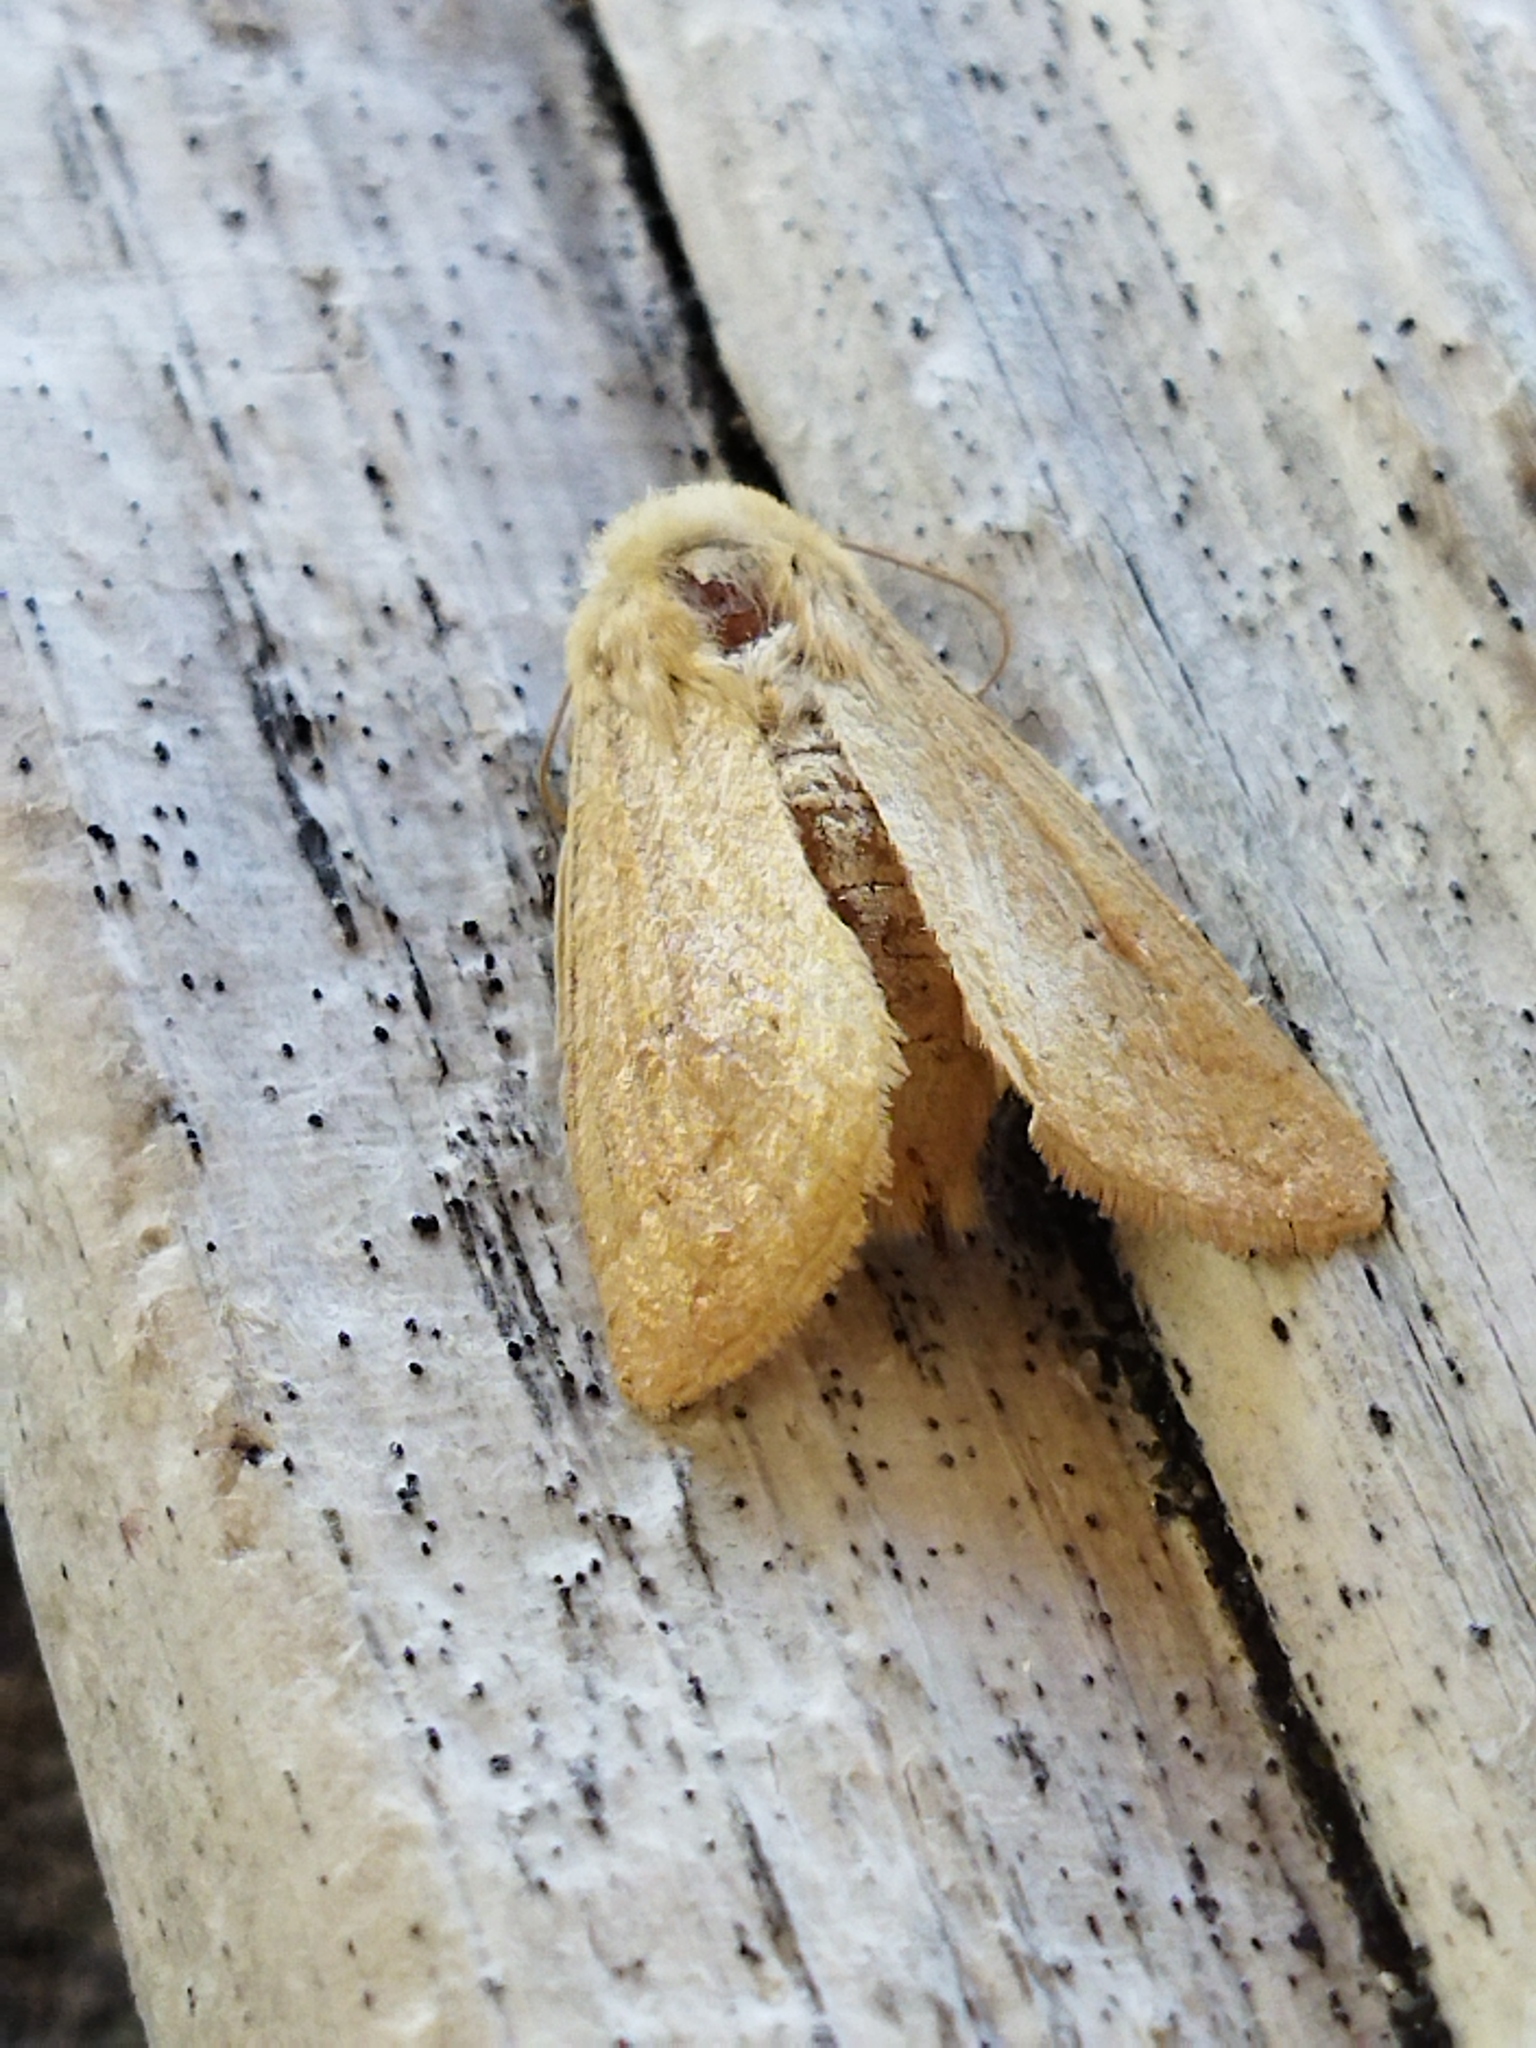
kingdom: Animalia
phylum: Arthropoda
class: Insecta
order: Lepidoptera
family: Noctuidae
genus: Mythimna
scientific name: Mythimna vitellina
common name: Delicate
